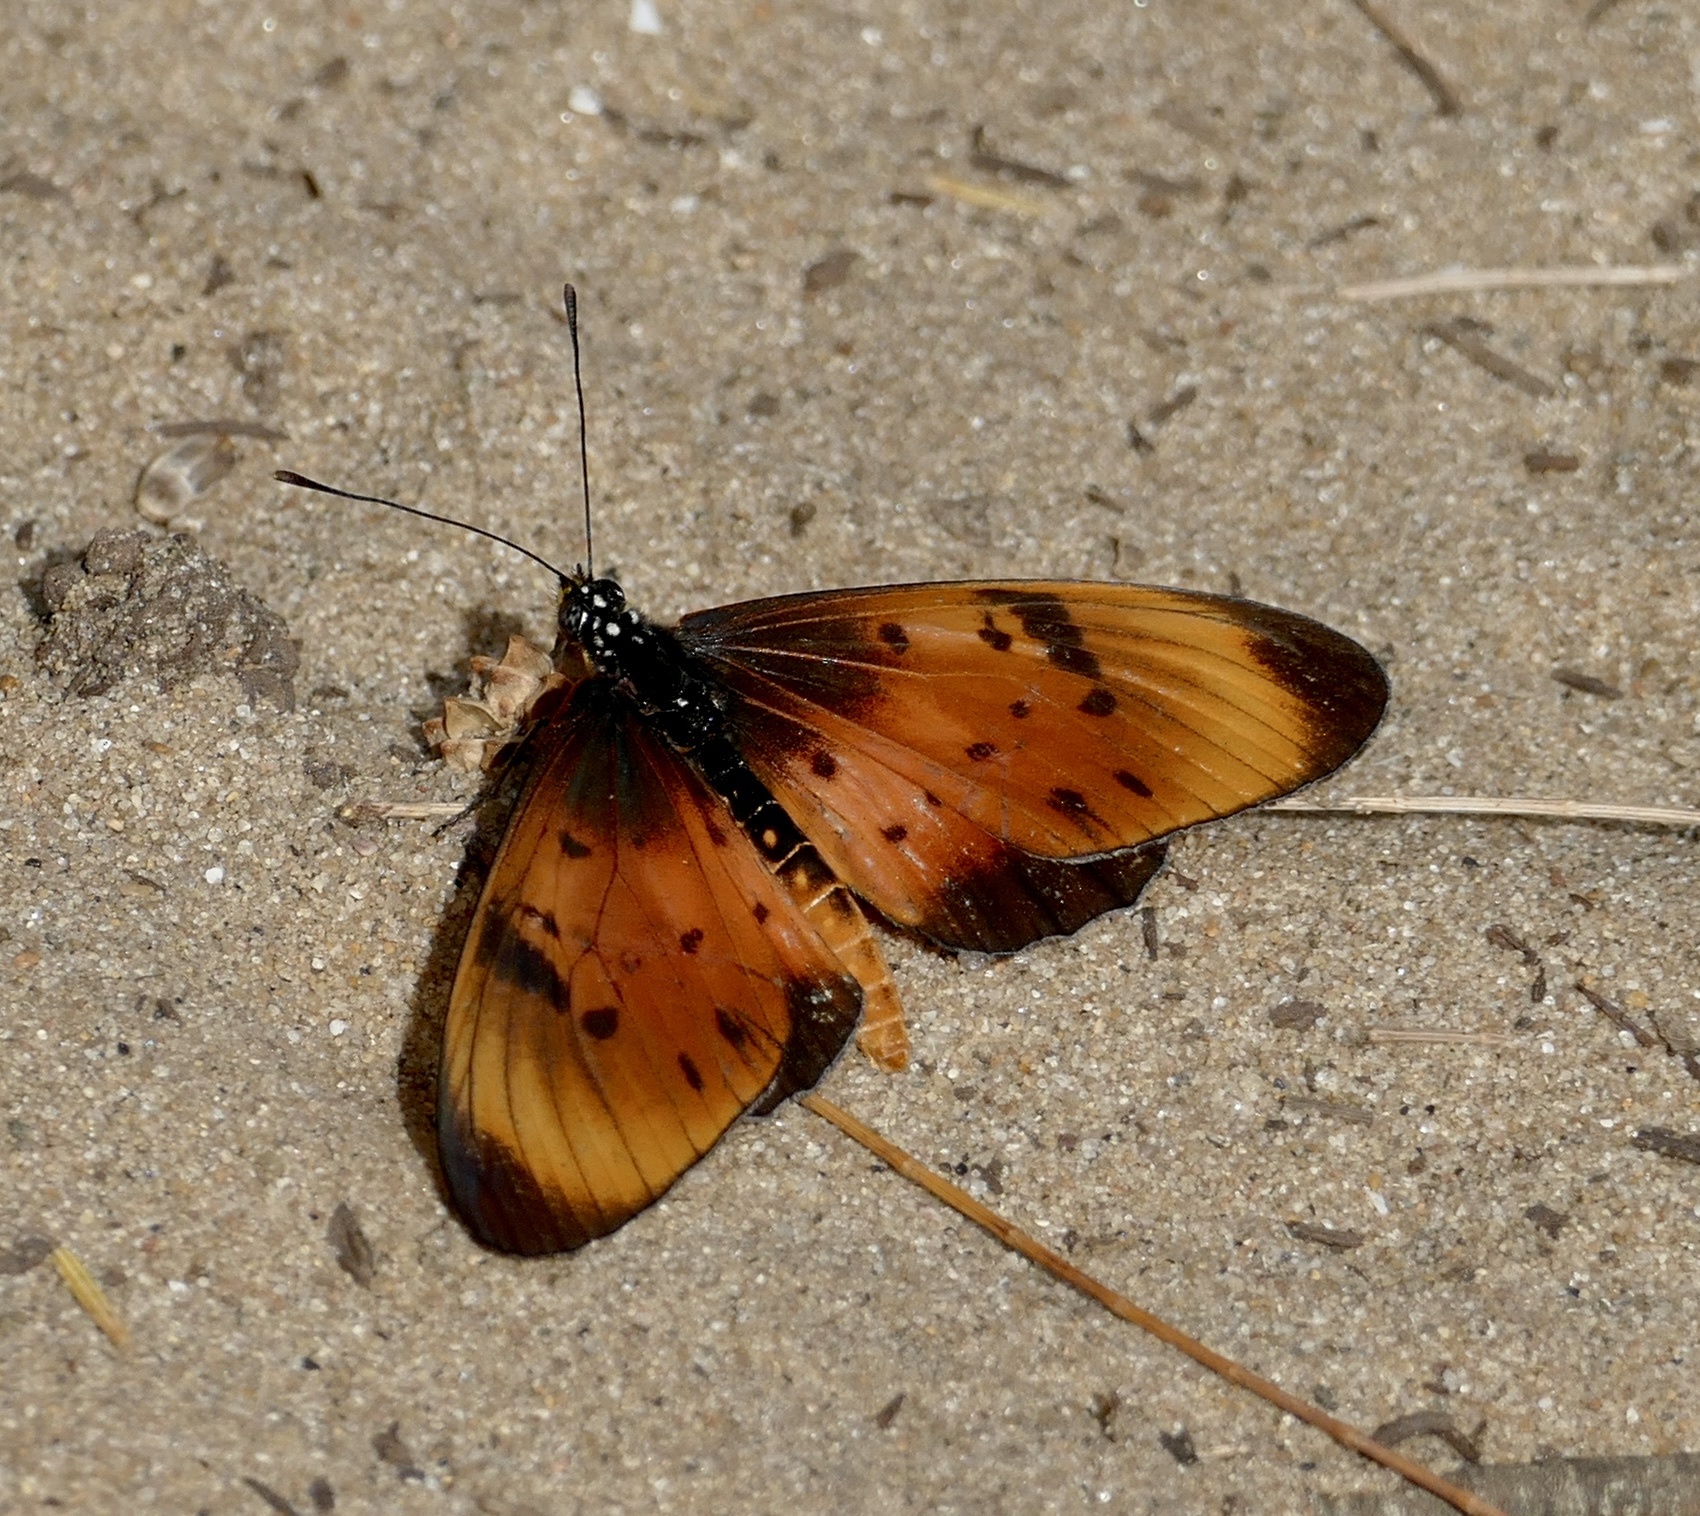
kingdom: Animalia
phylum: Arthropoda
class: Insecta
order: Lepidoptera
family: Nymphalidae
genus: Stephenia
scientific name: Stephenia
